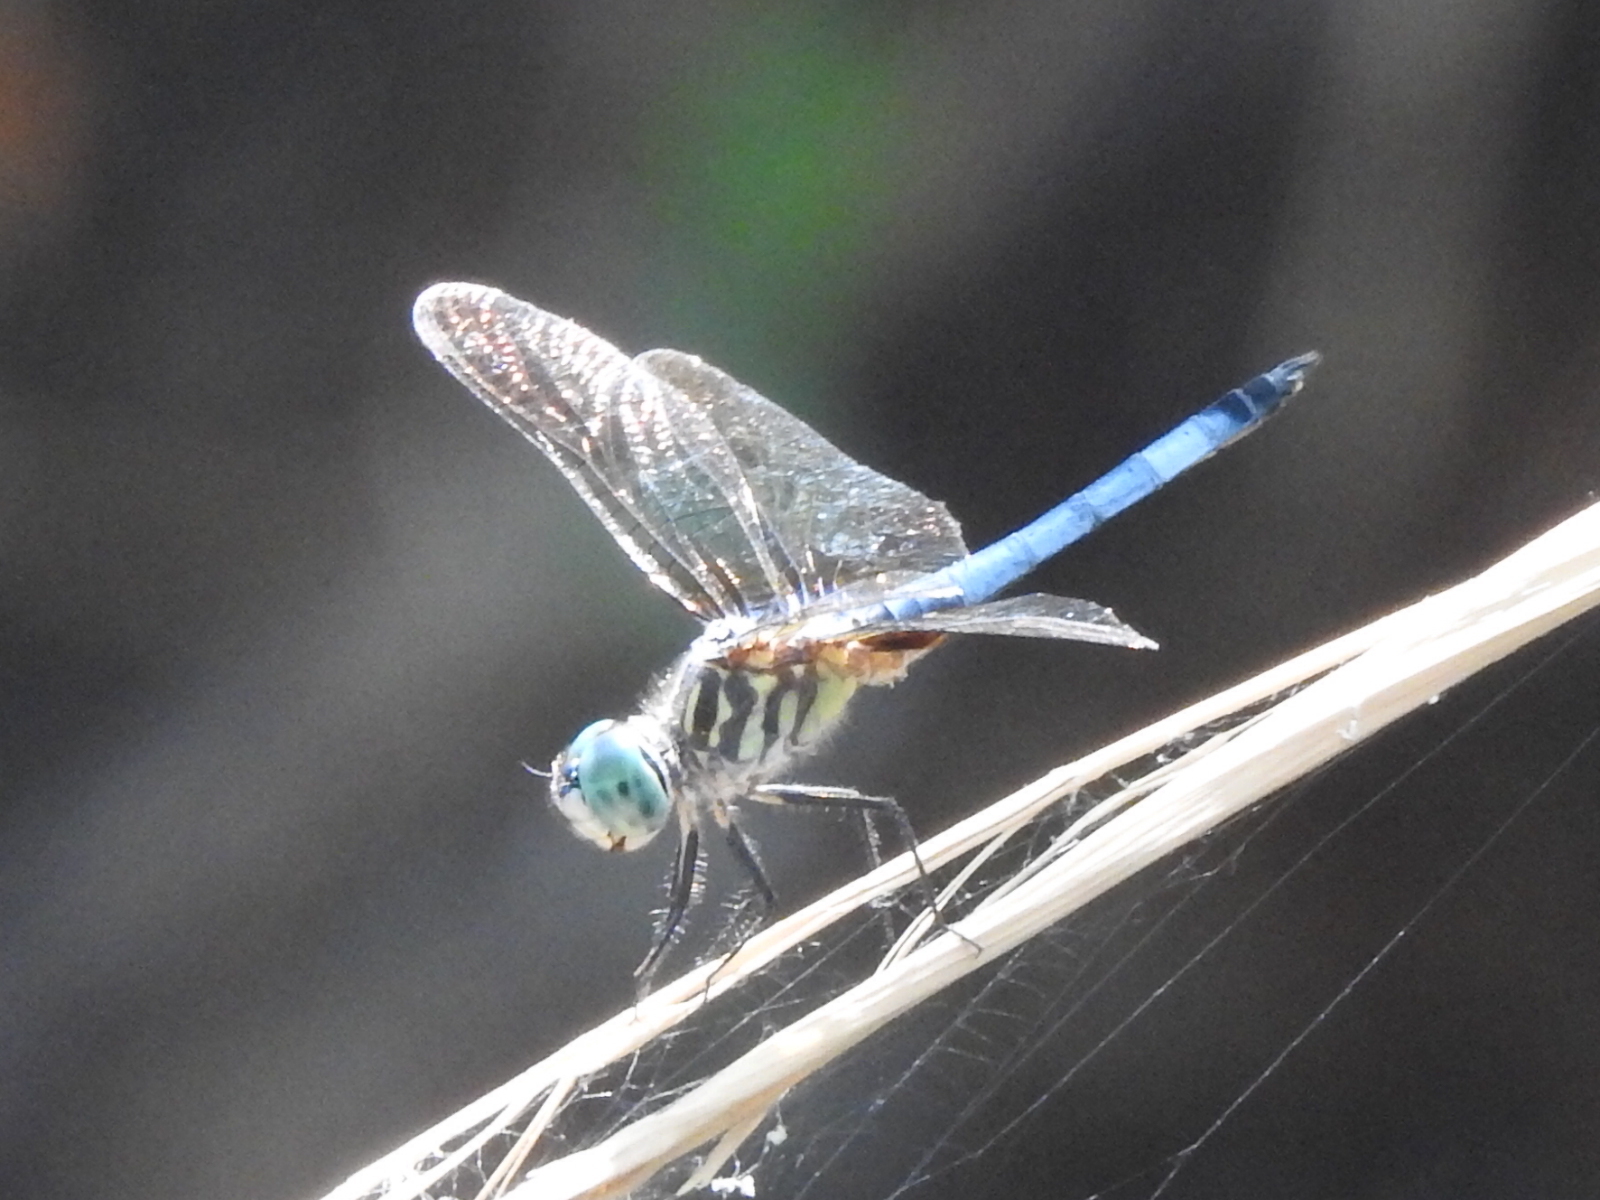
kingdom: Animalia
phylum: Arthropoda
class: Insecta
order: Odonata
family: Libellulidae
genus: Pachydiplax
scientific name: Pachydiplax longipennis
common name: Blue dasher
